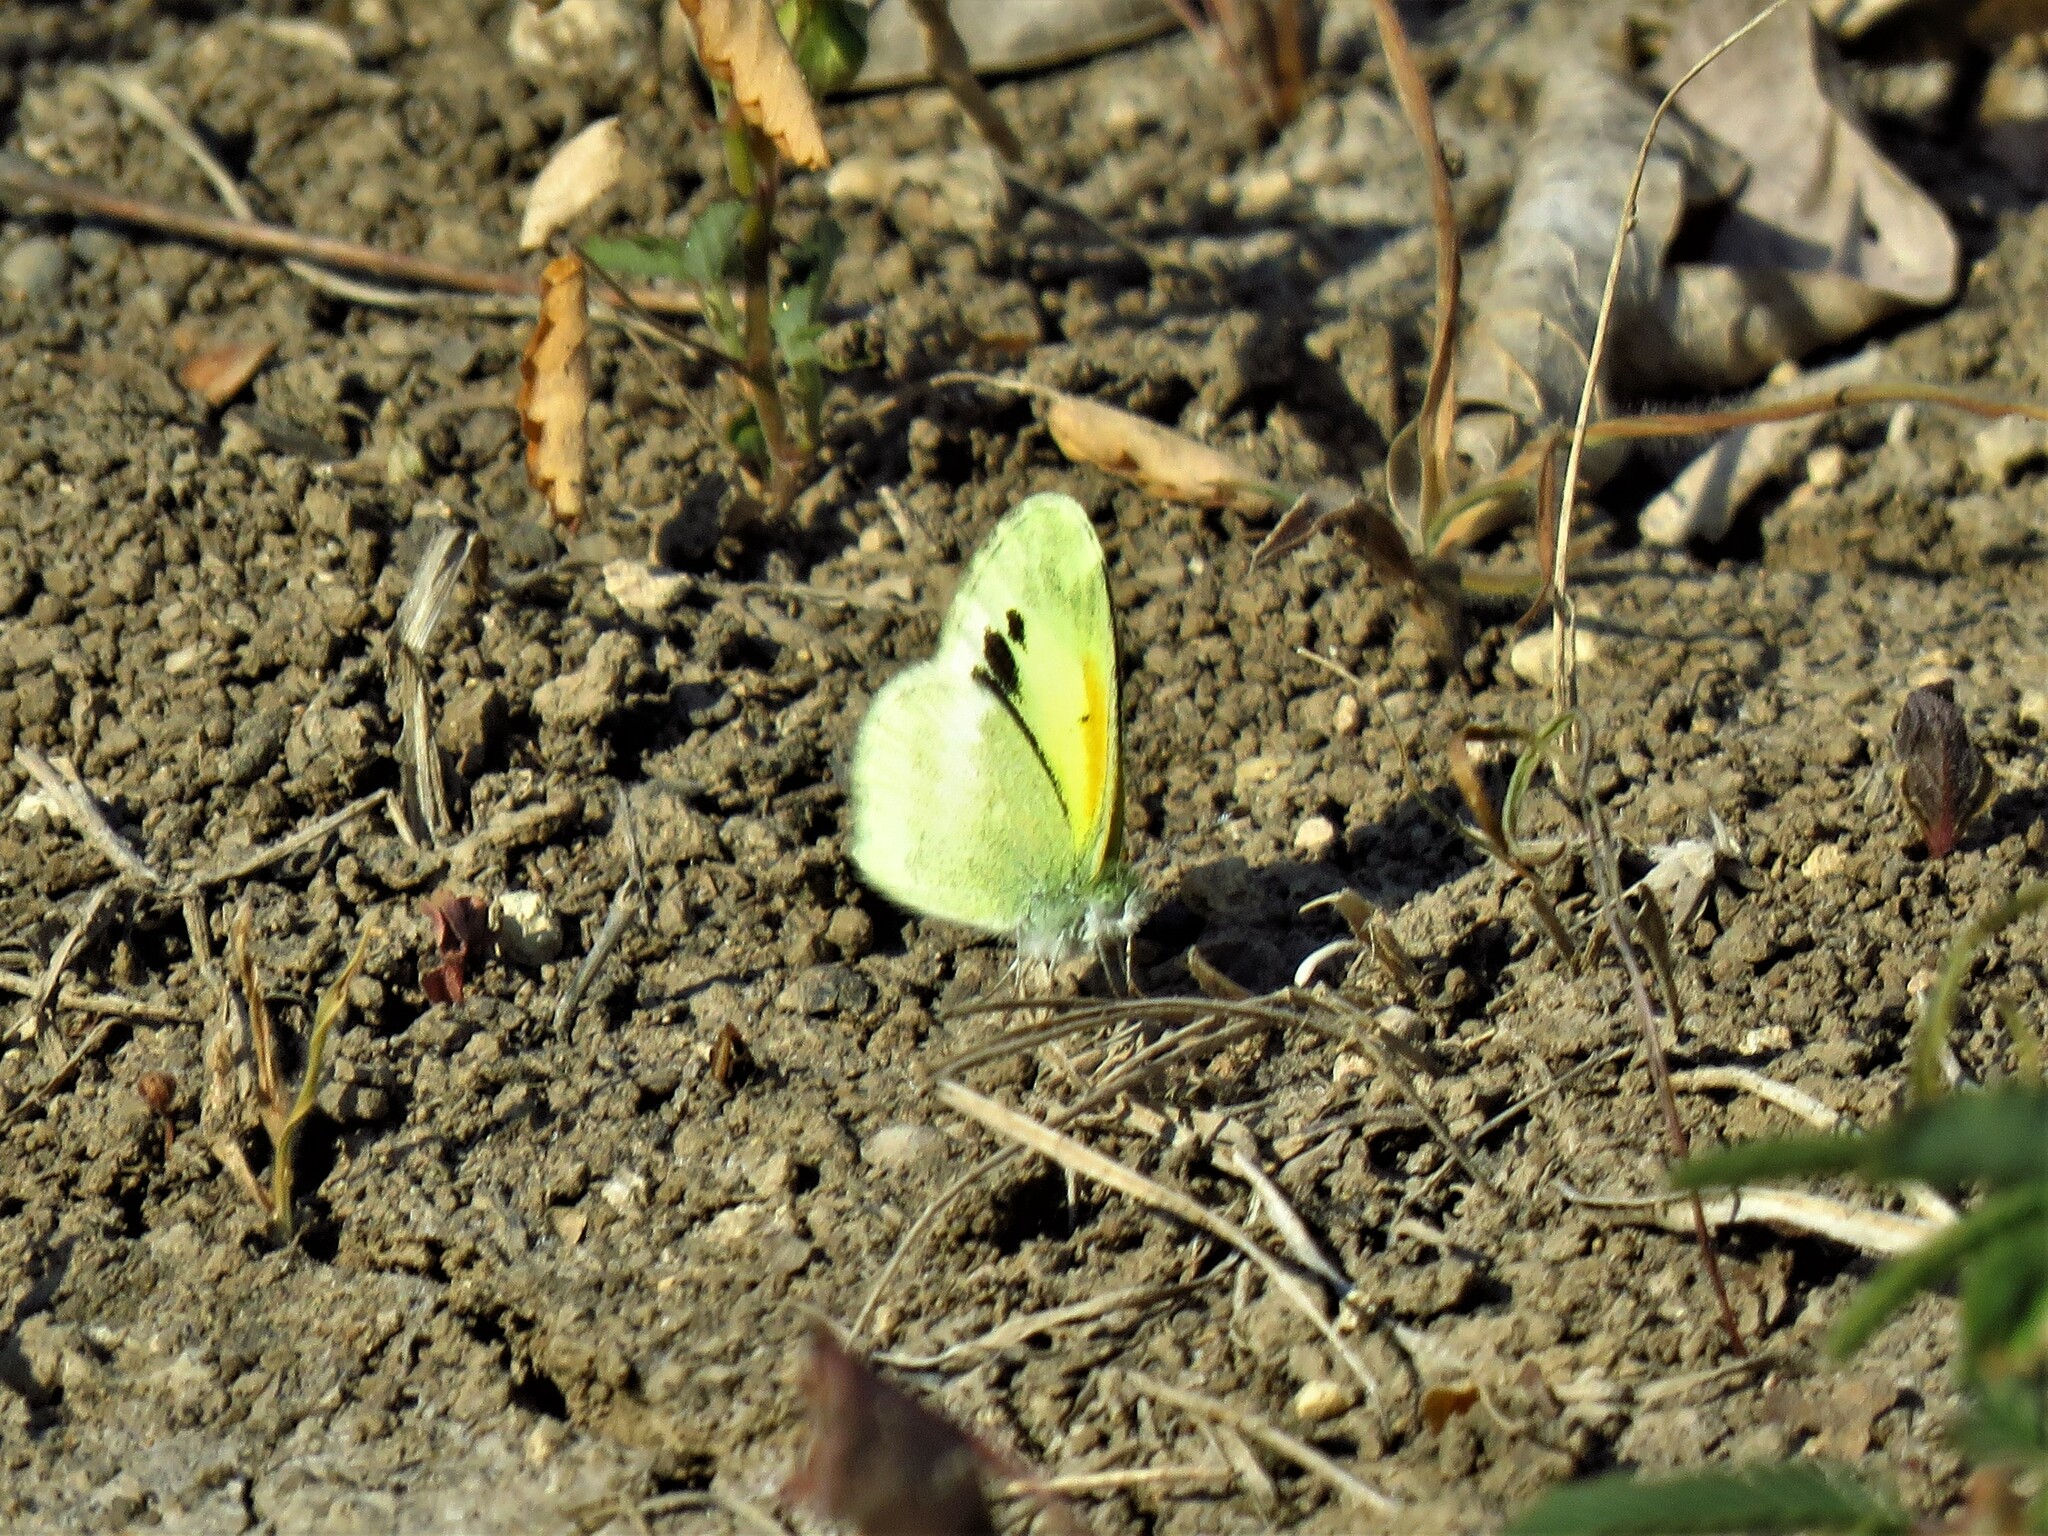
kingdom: Animalia
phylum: Arthropoda
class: Insecta
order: Lepidoptera
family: Pieridae
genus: Nathalis
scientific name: Nathalis iole
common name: Dainty sulphur
